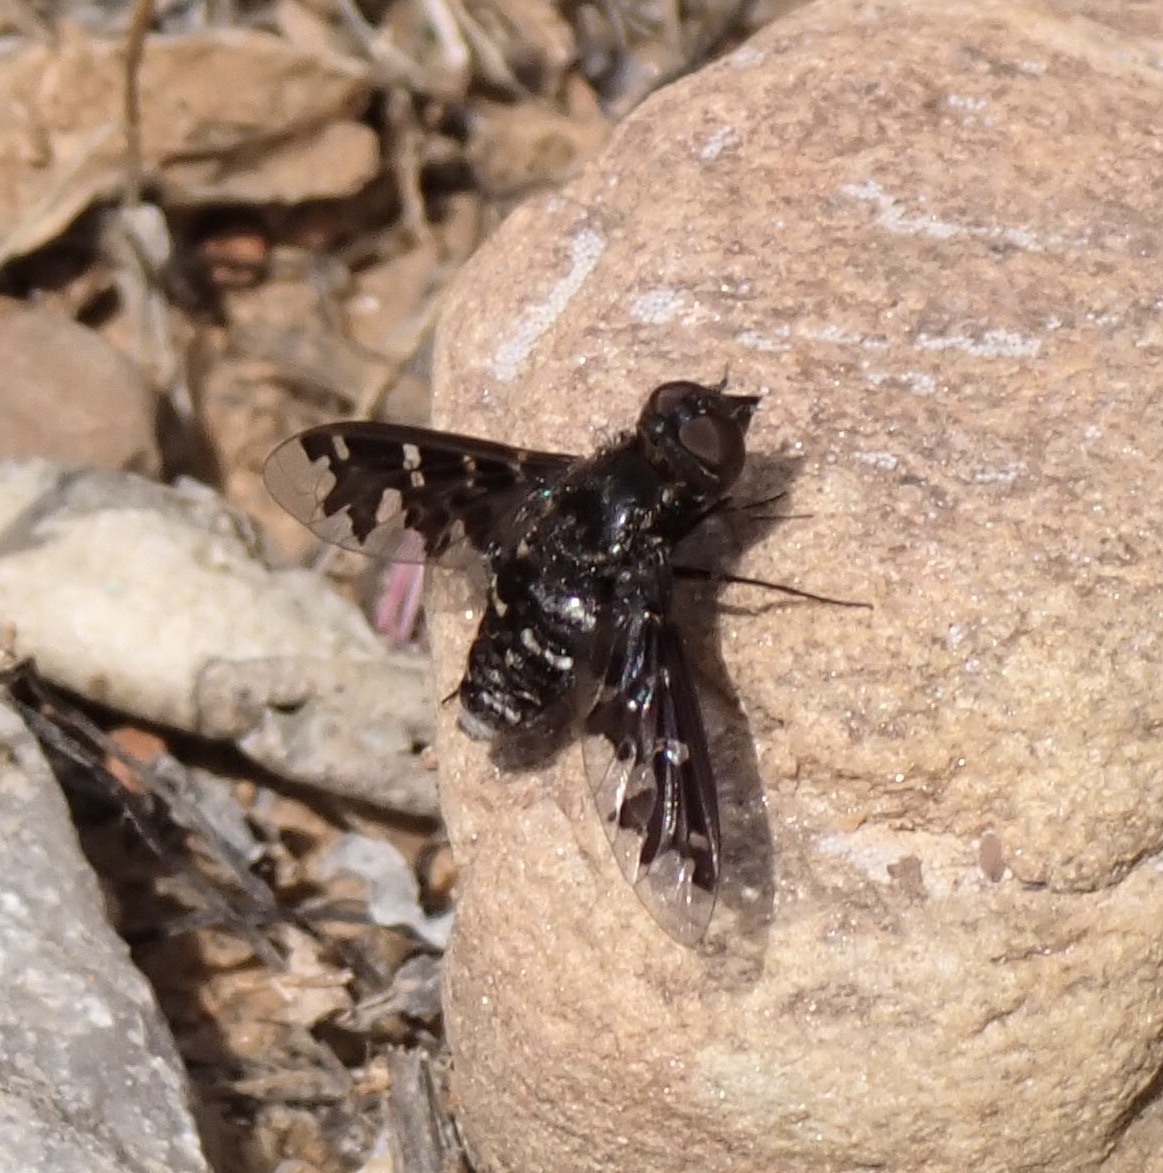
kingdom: Animalia
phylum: Arthropoda
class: Insecta
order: Diptera
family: Bombyliidae
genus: Exoprosopa
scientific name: Exoprosopa pandora
